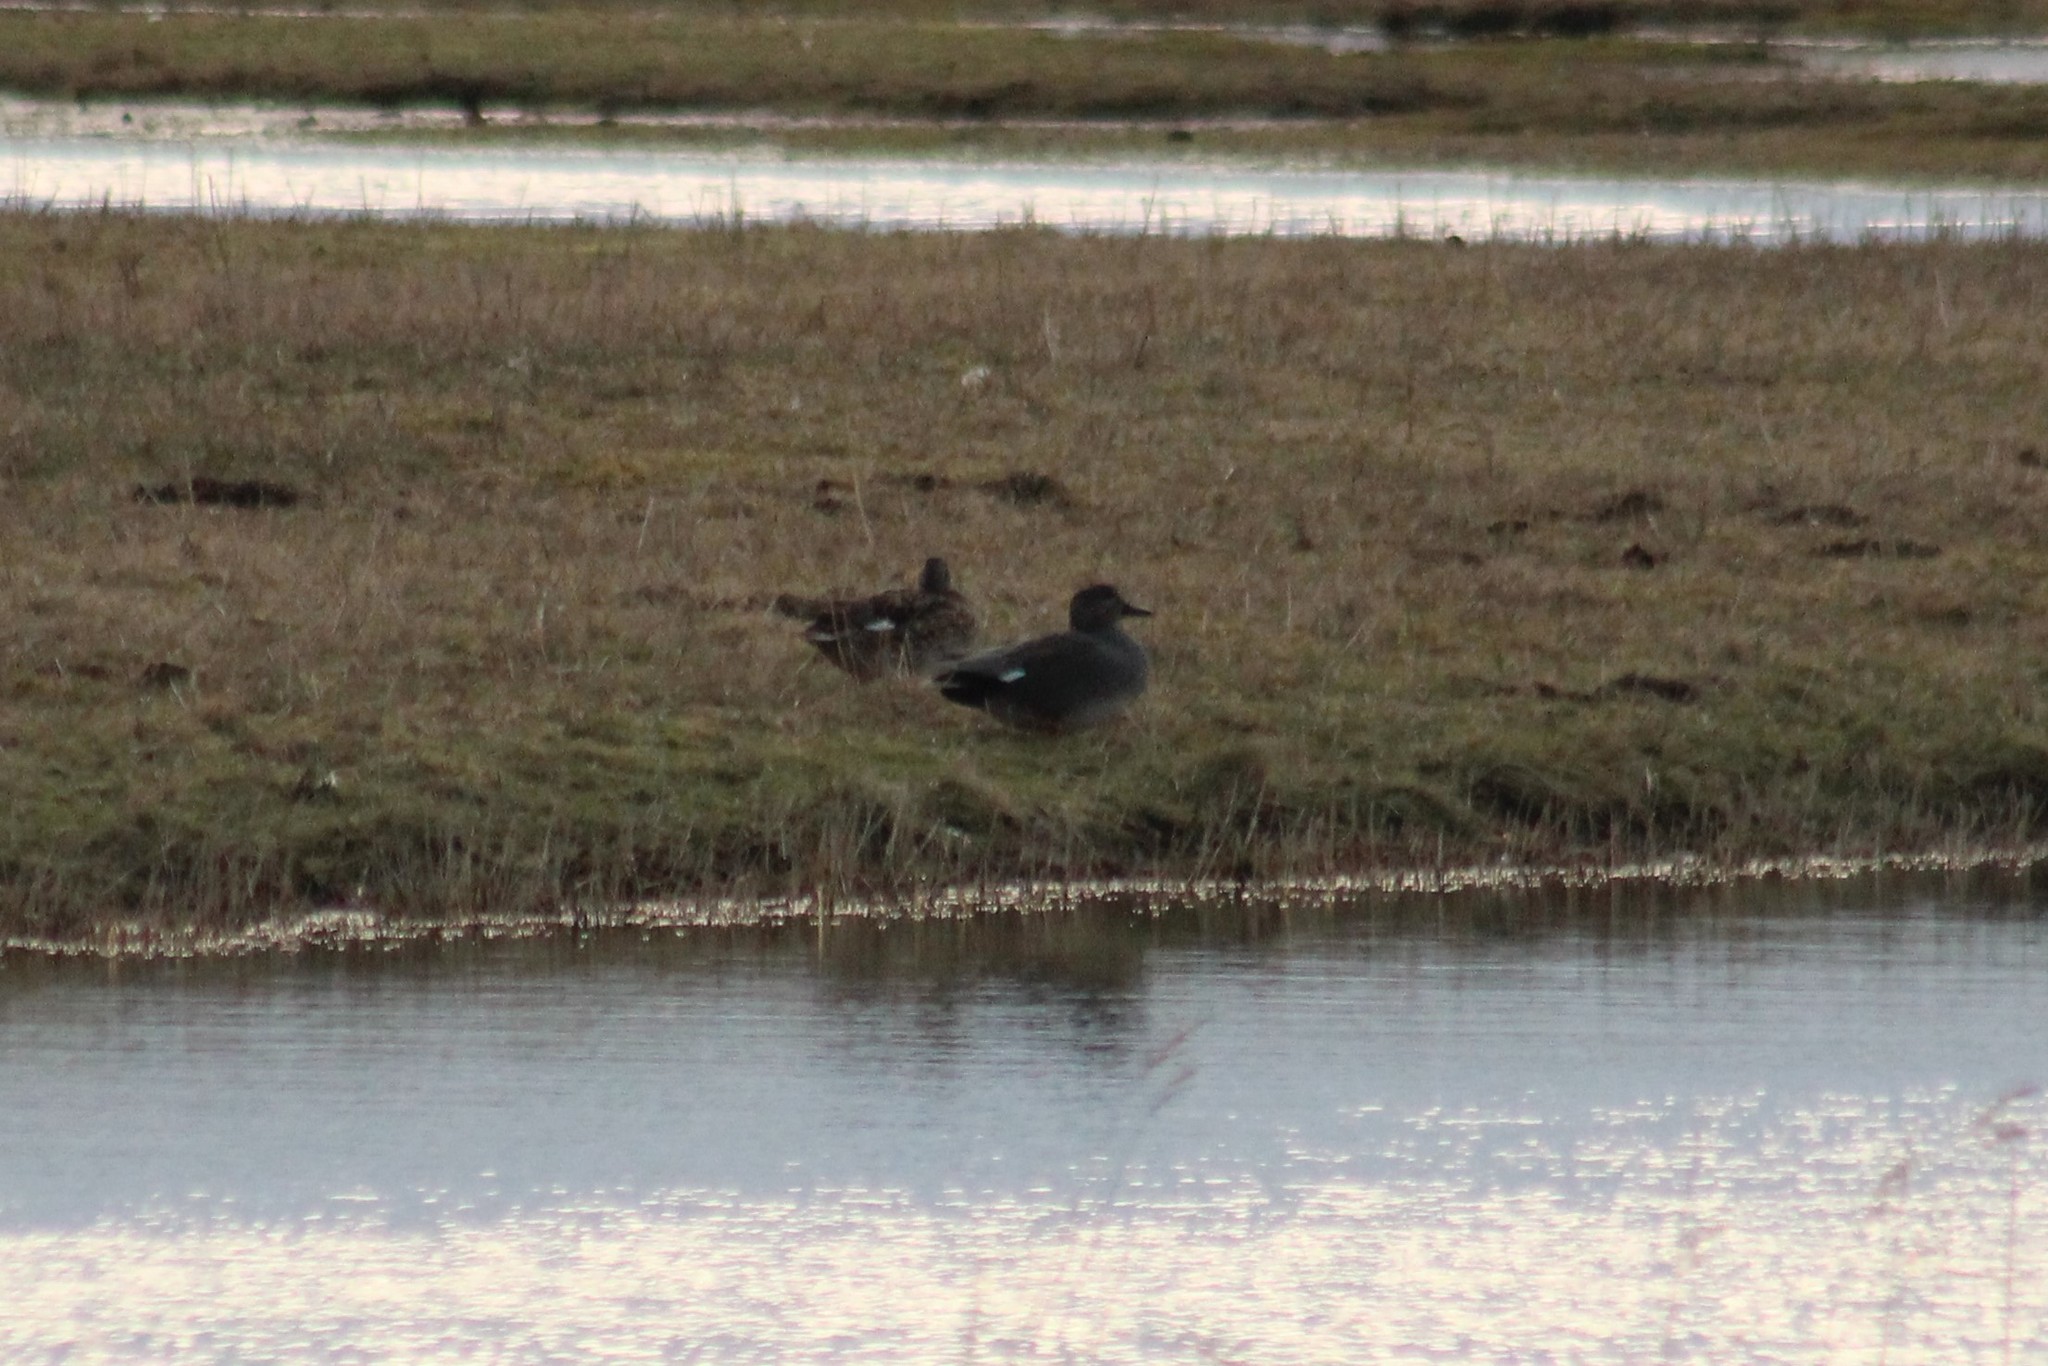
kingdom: Animalia
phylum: Chordata
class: Aves
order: Anseriformes
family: Anatidae
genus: Mareca
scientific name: Mareca strepera
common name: Gadwall
